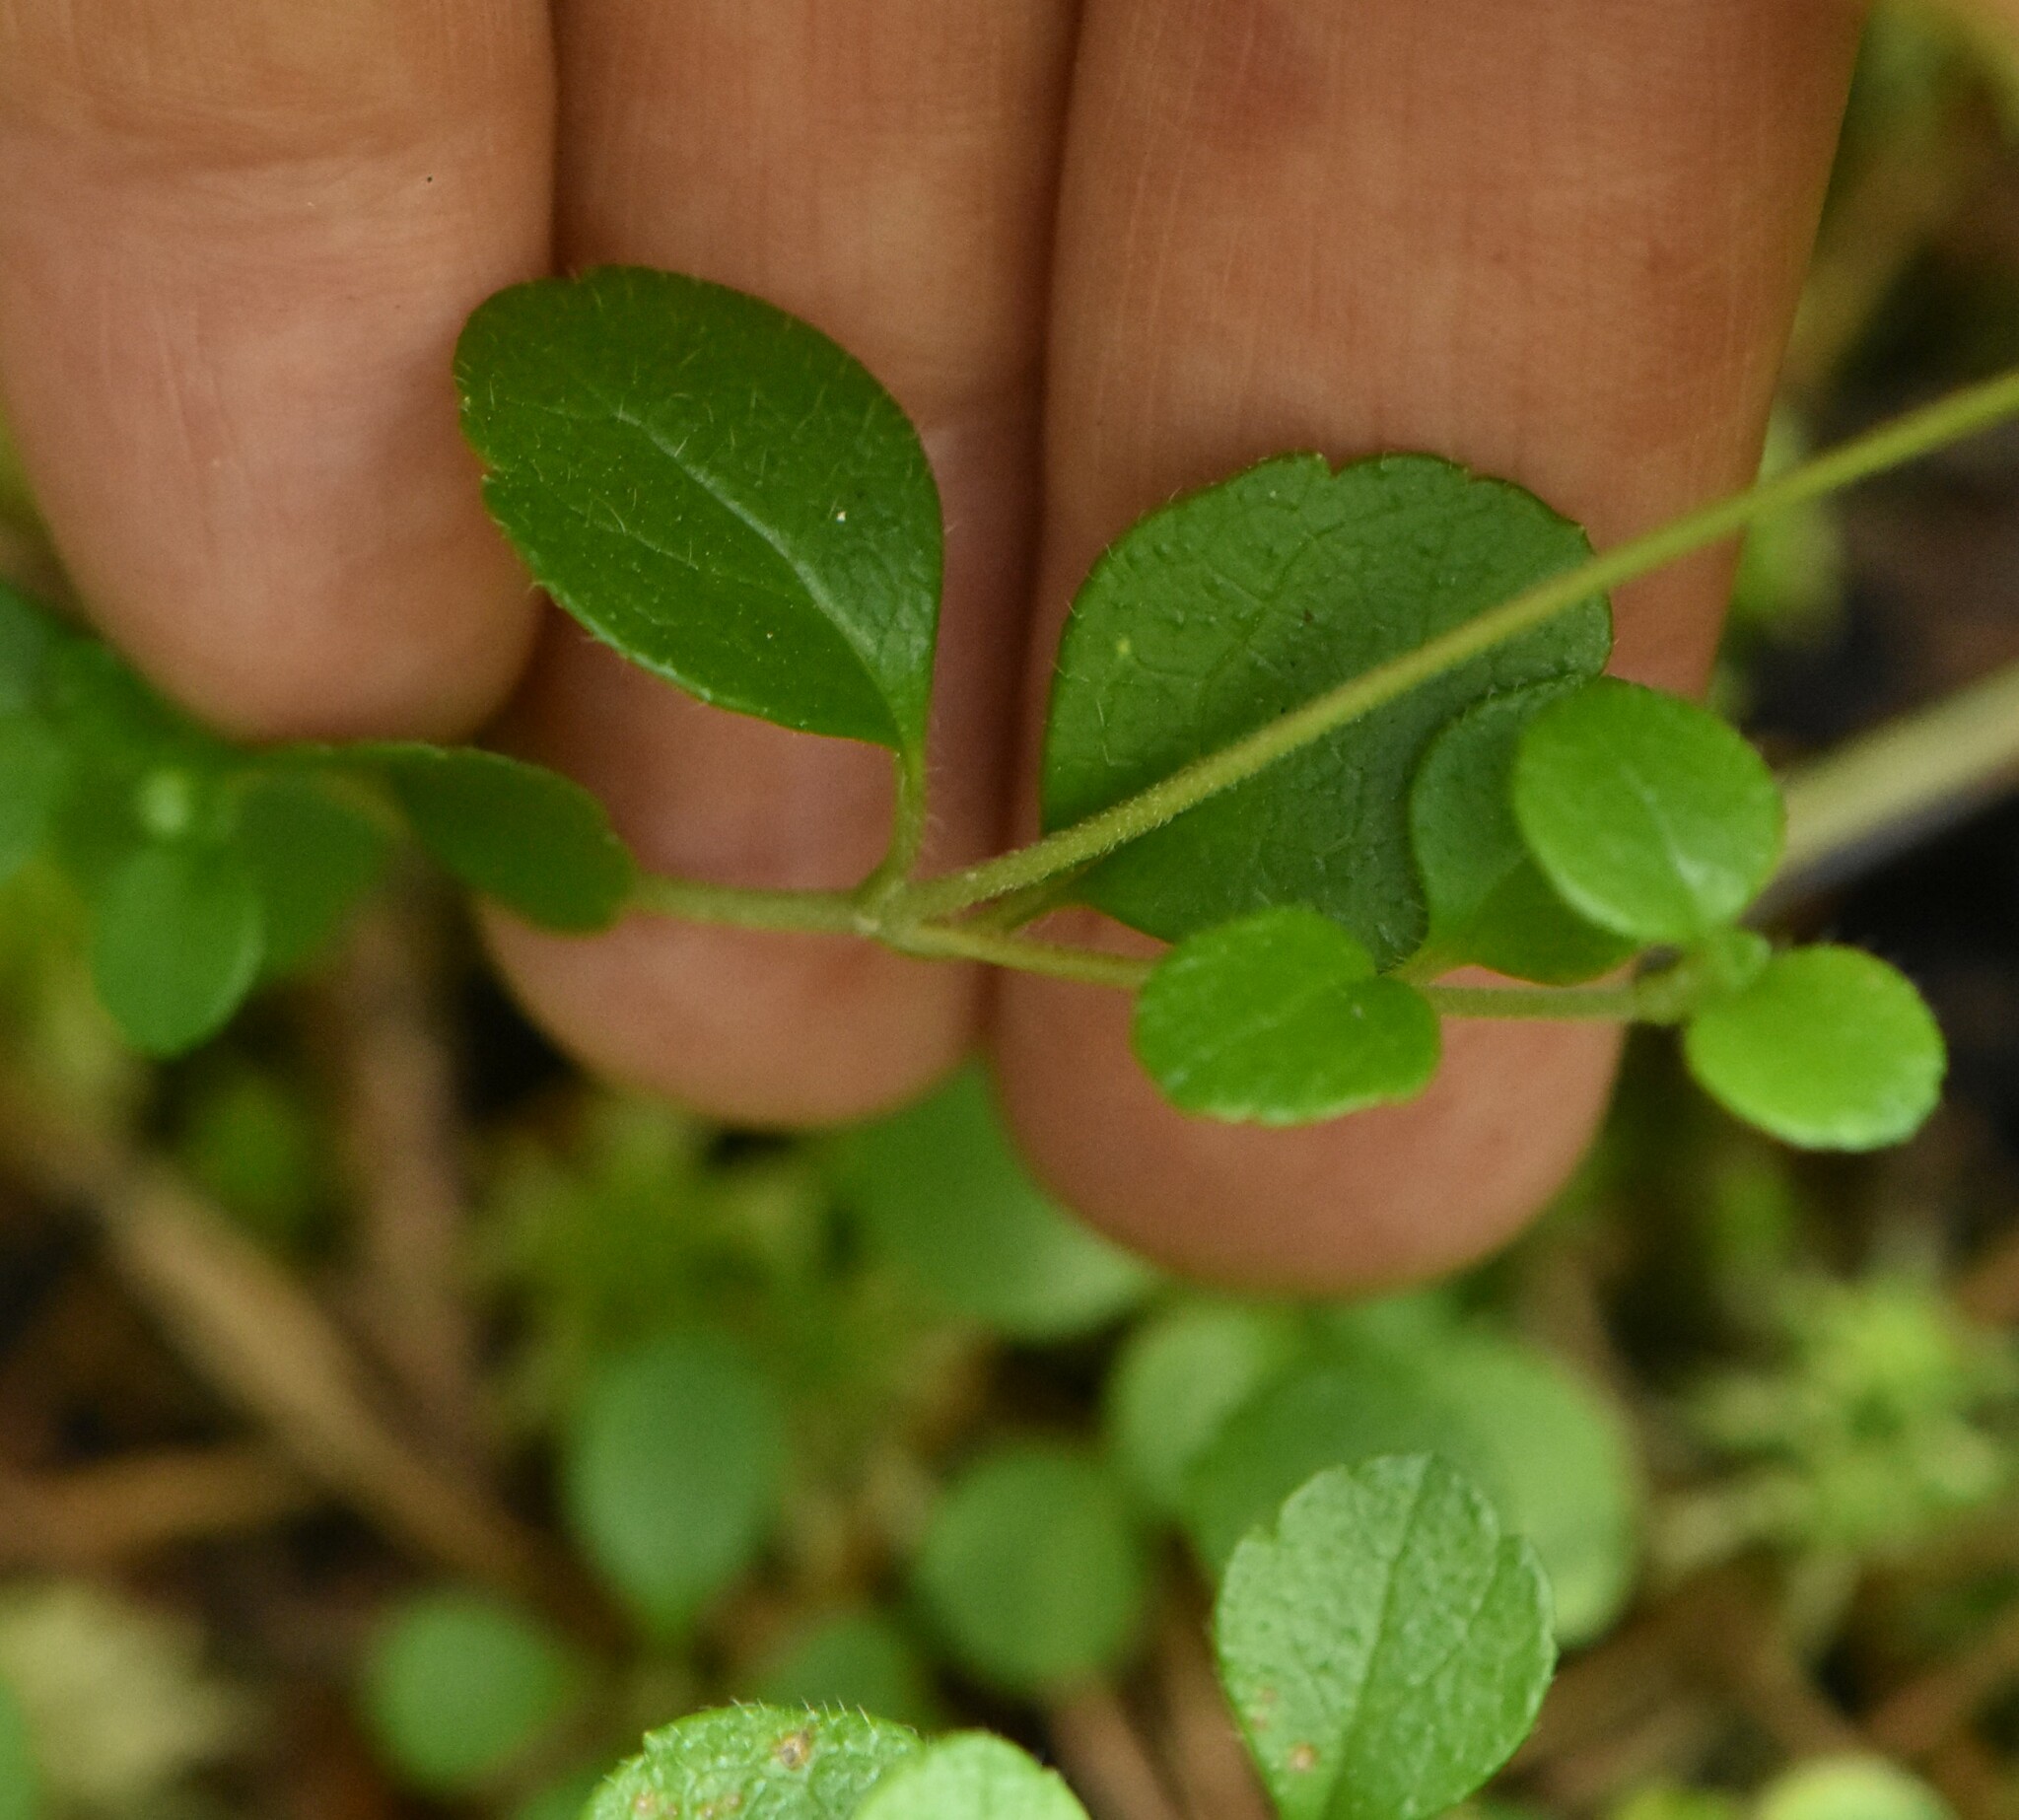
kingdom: Plantae
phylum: Tracheophyta
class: Magnoliopsida
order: Dipsacales
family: Caprifoliaceae
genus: Linnaea
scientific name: Linnaea borealis
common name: Twinflower
